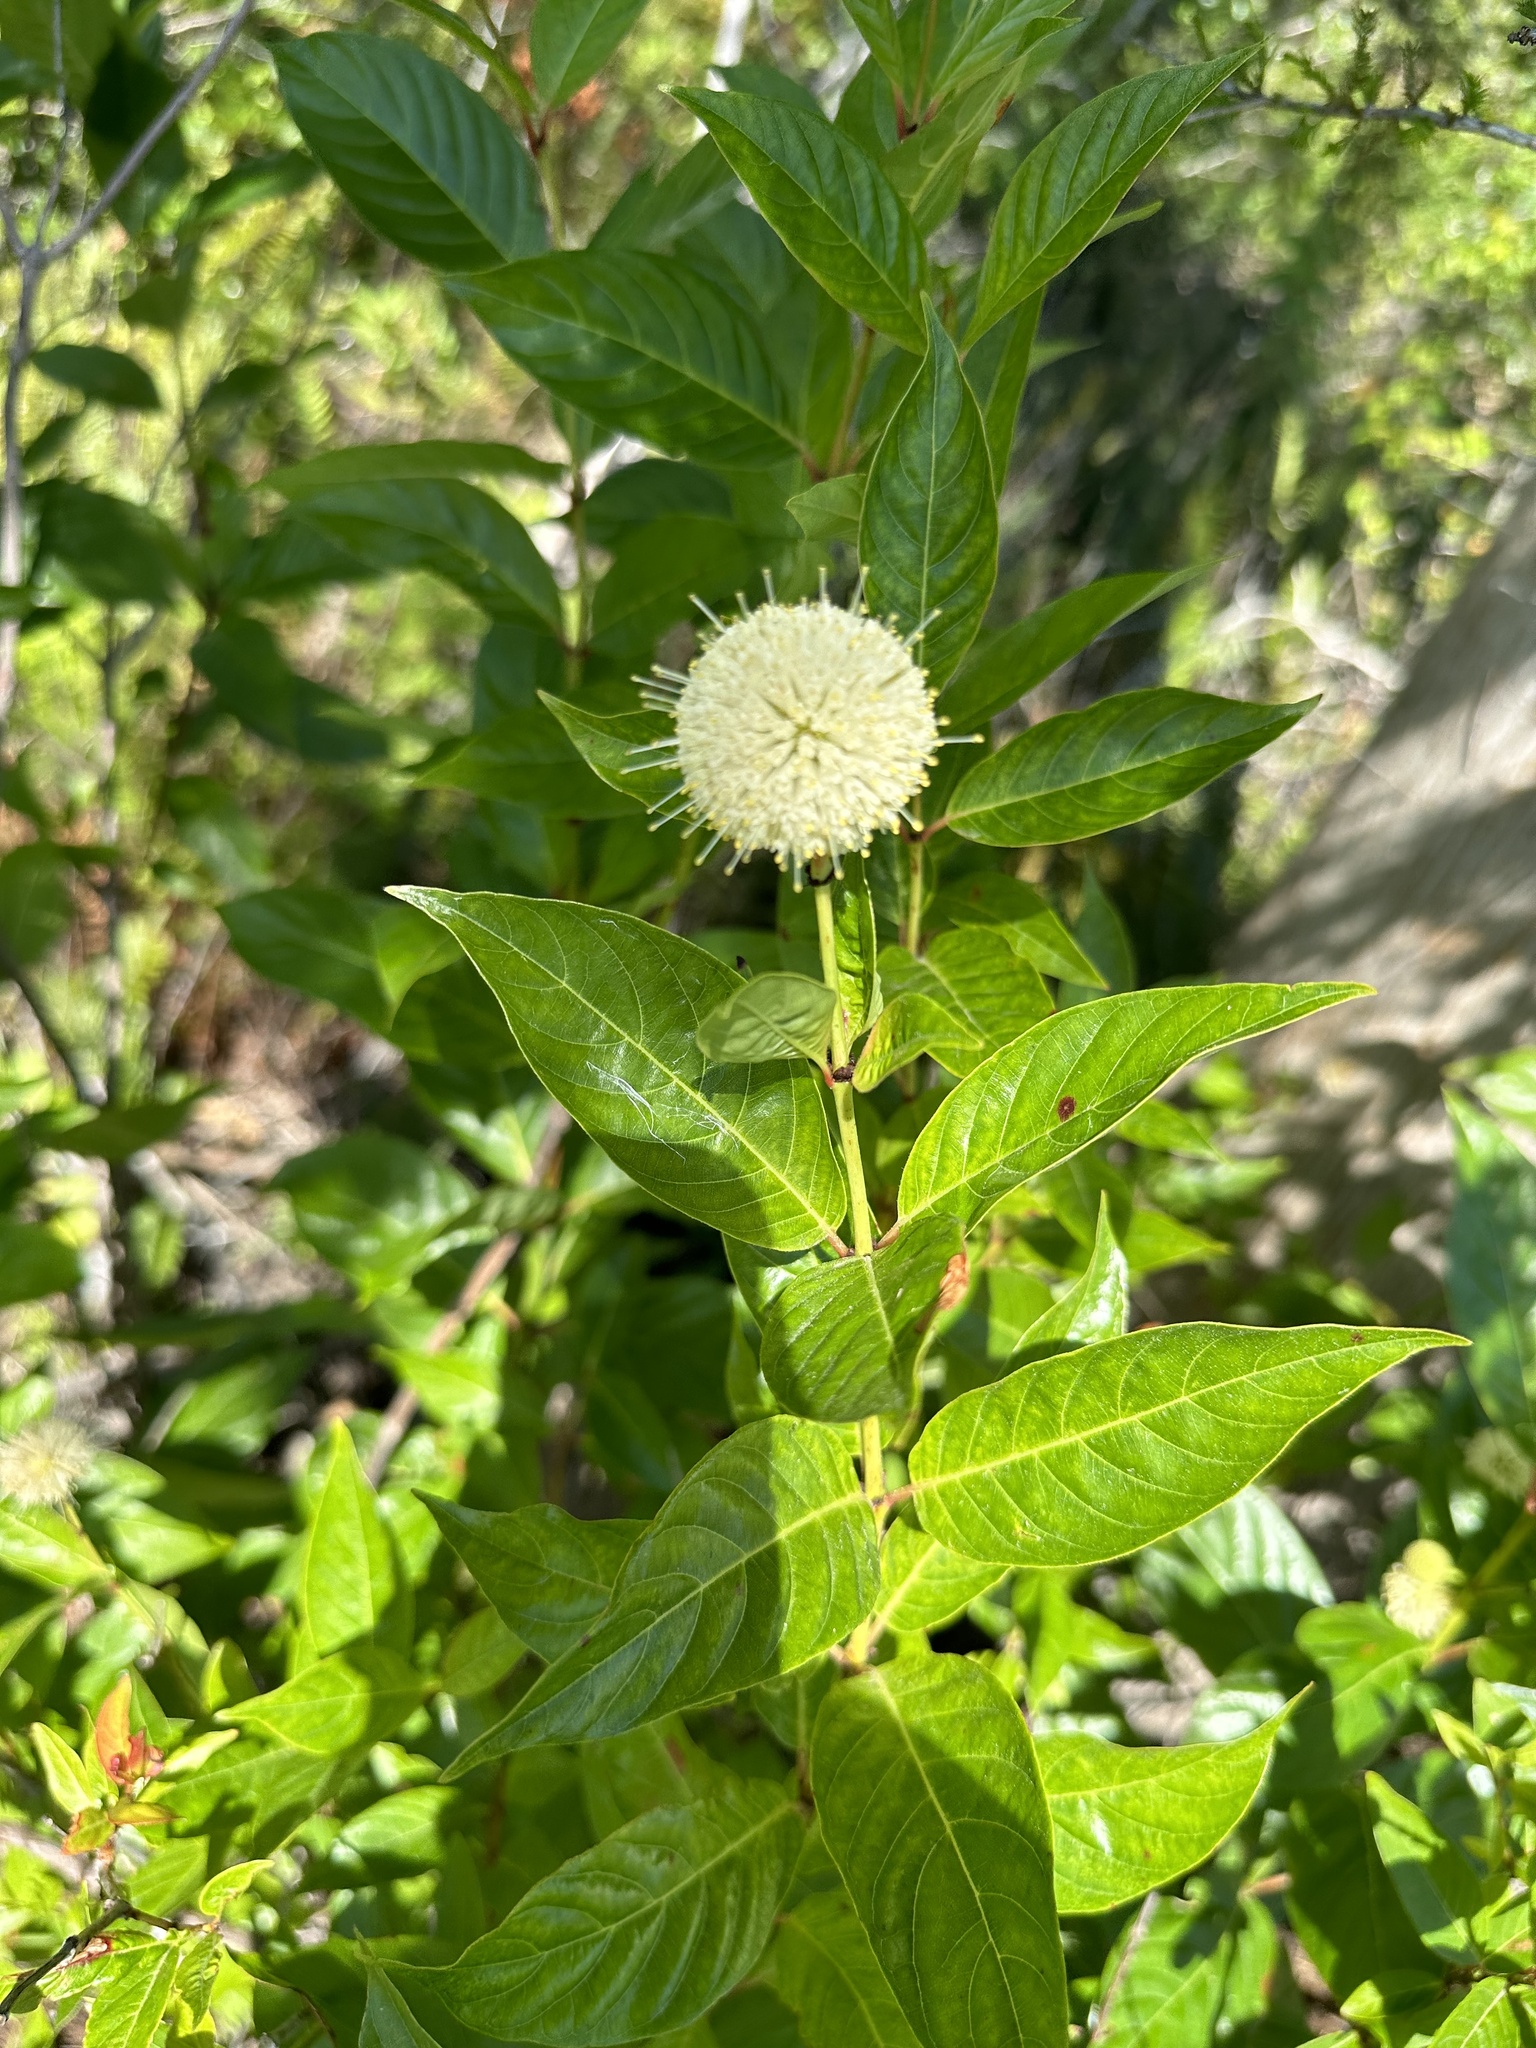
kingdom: Plantae
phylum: Tracheophyta
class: Magnoliopsida
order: Gentianales
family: Rubiaceae
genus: Cephalanthus
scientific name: Cephalanthus occidentalis
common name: Button-willow
